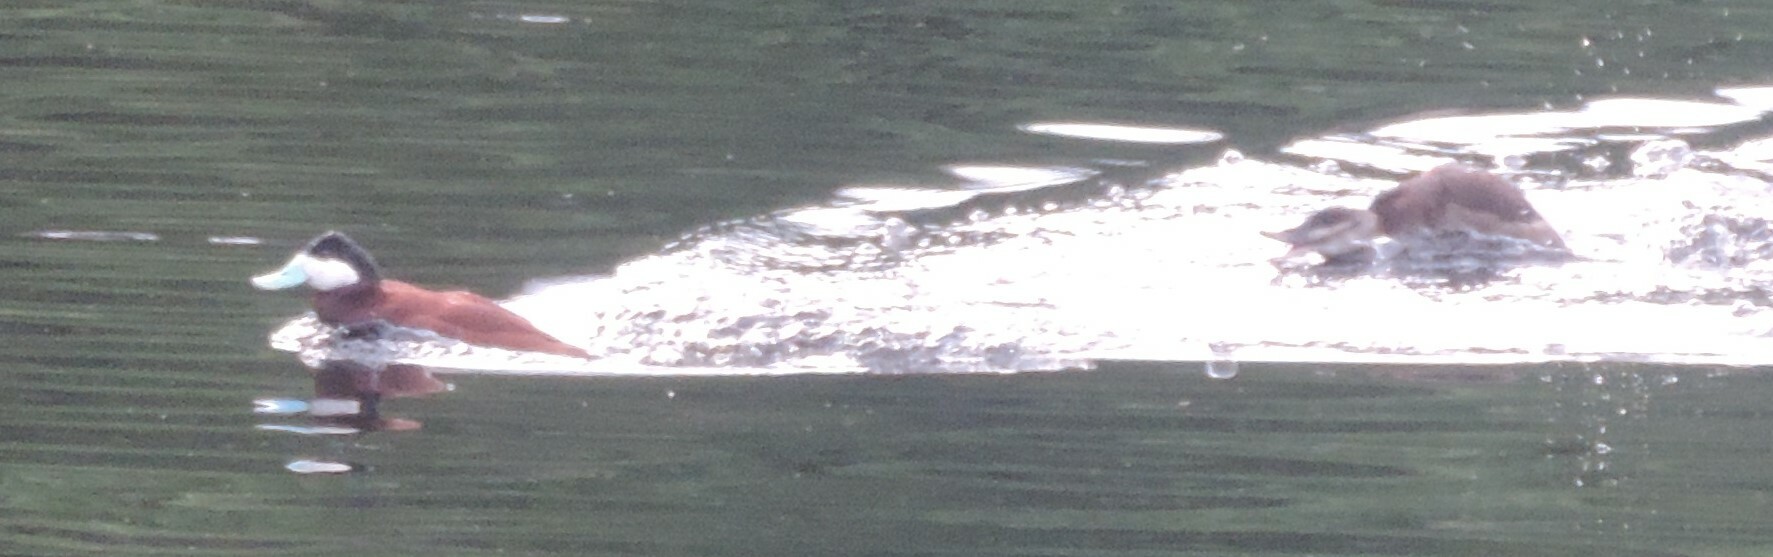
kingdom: Animalia
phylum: Chordata
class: Aves
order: Anseriformes
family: Anatidae
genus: Oxyura
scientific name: Oxyura jamaicensis
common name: Ruddy duck
